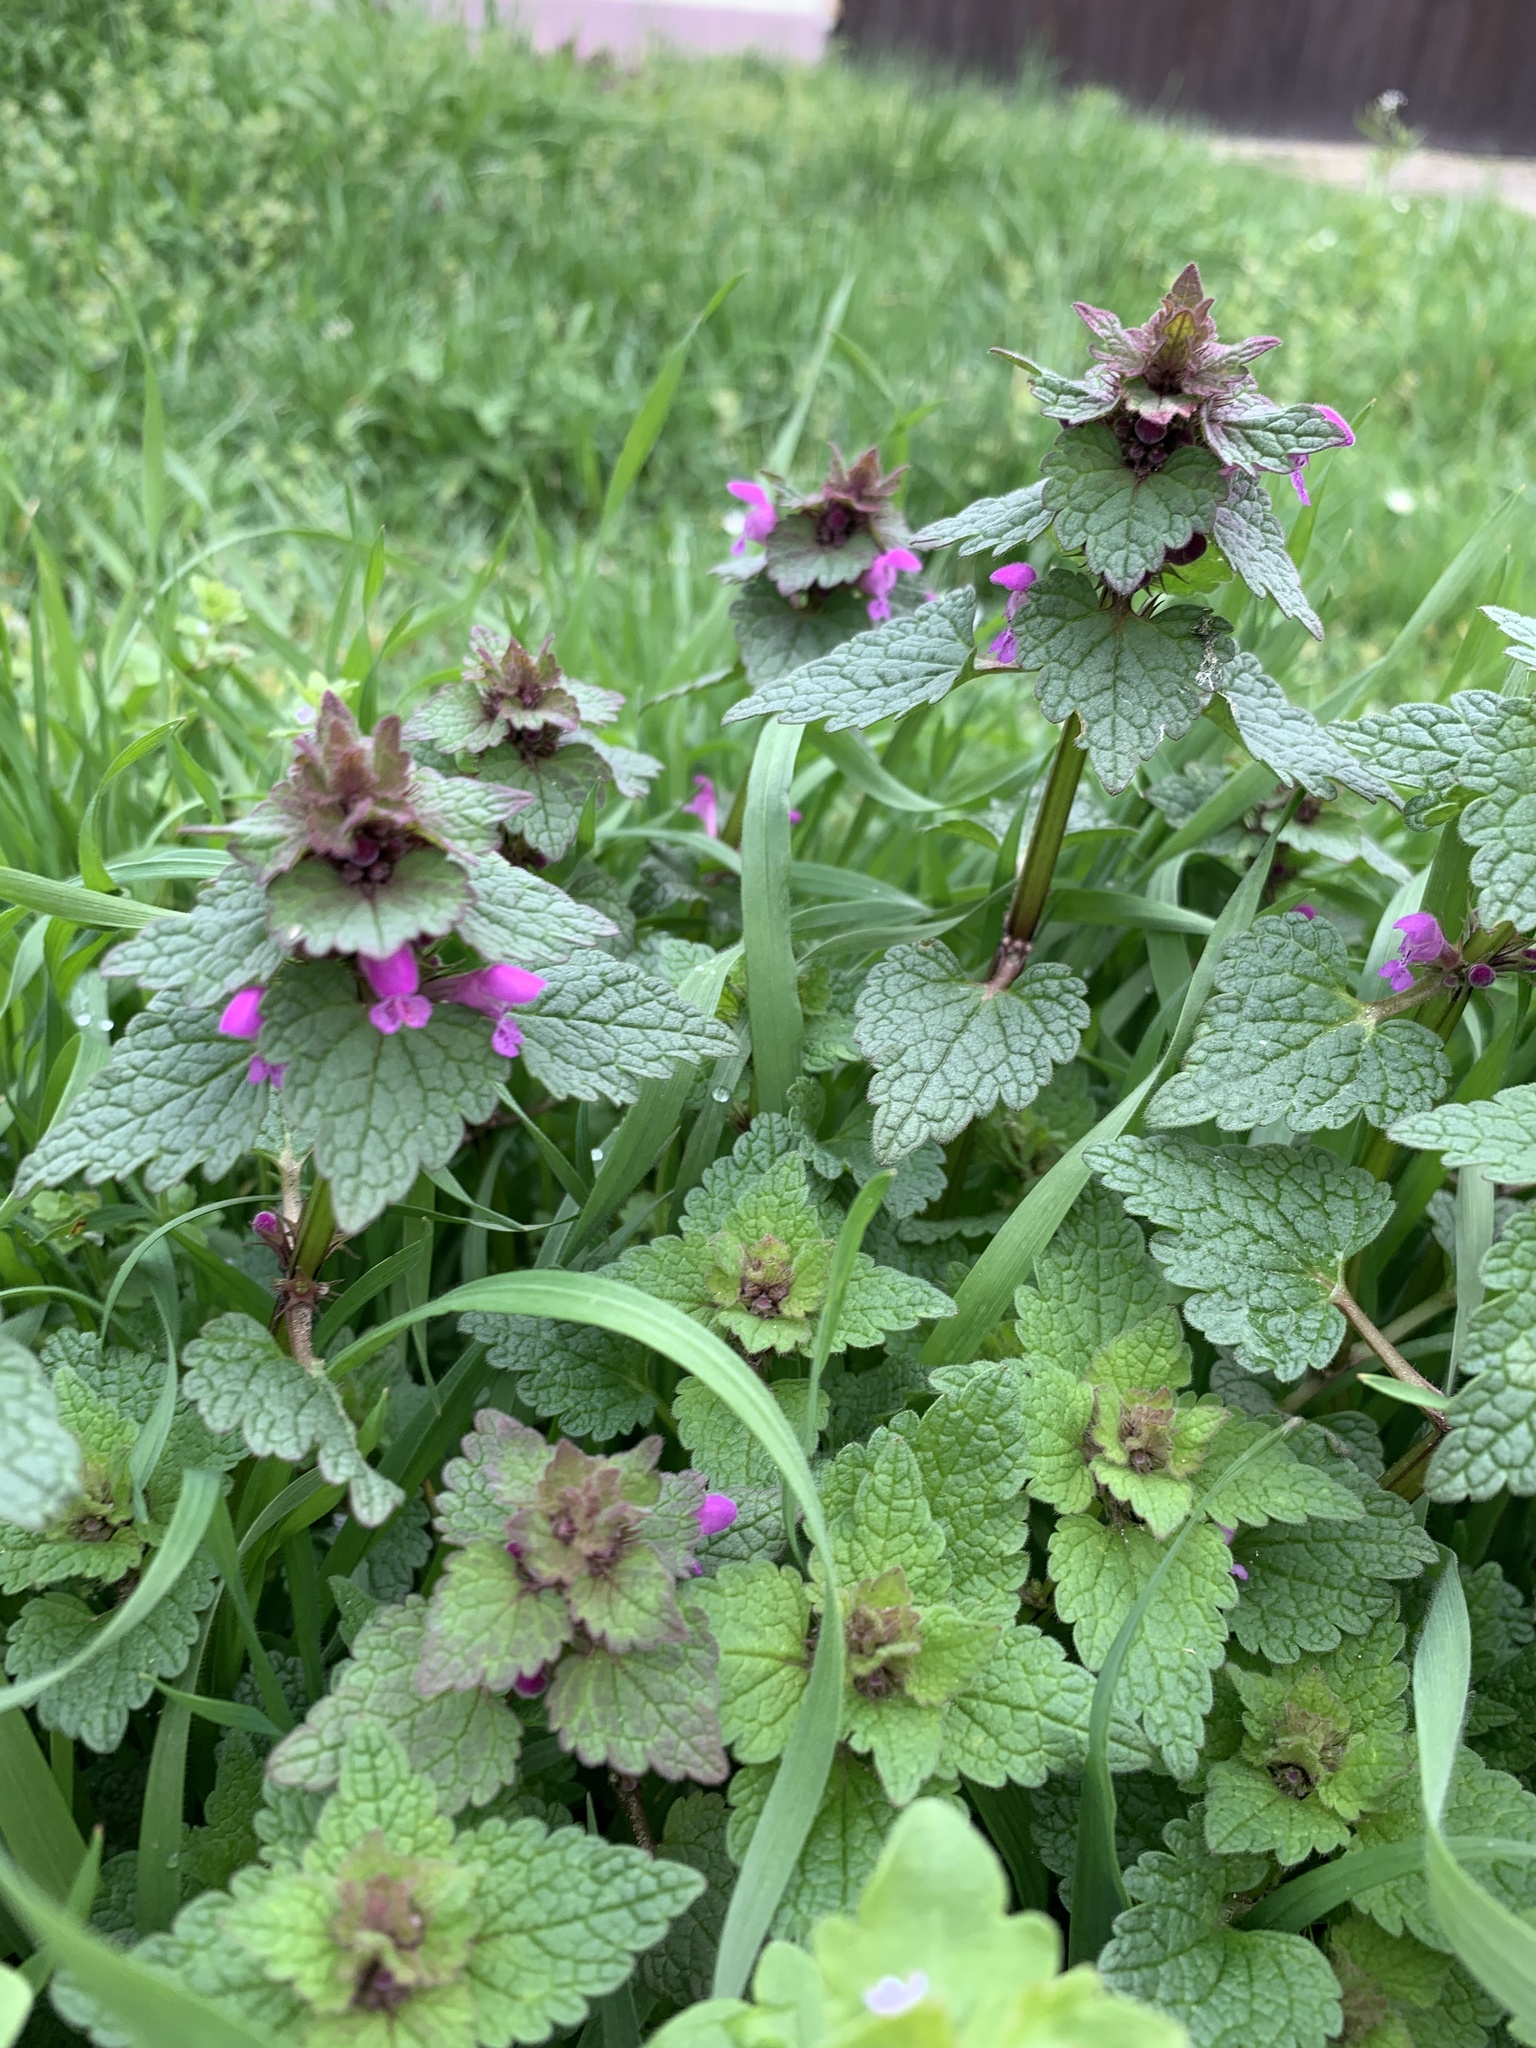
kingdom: Plantae
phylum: Tracheophyta
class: Magnoliopsida
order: Lamiales
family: Lamiaceae
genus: Lamium
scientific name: Lamium purpureum
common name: Red dead-nettle
